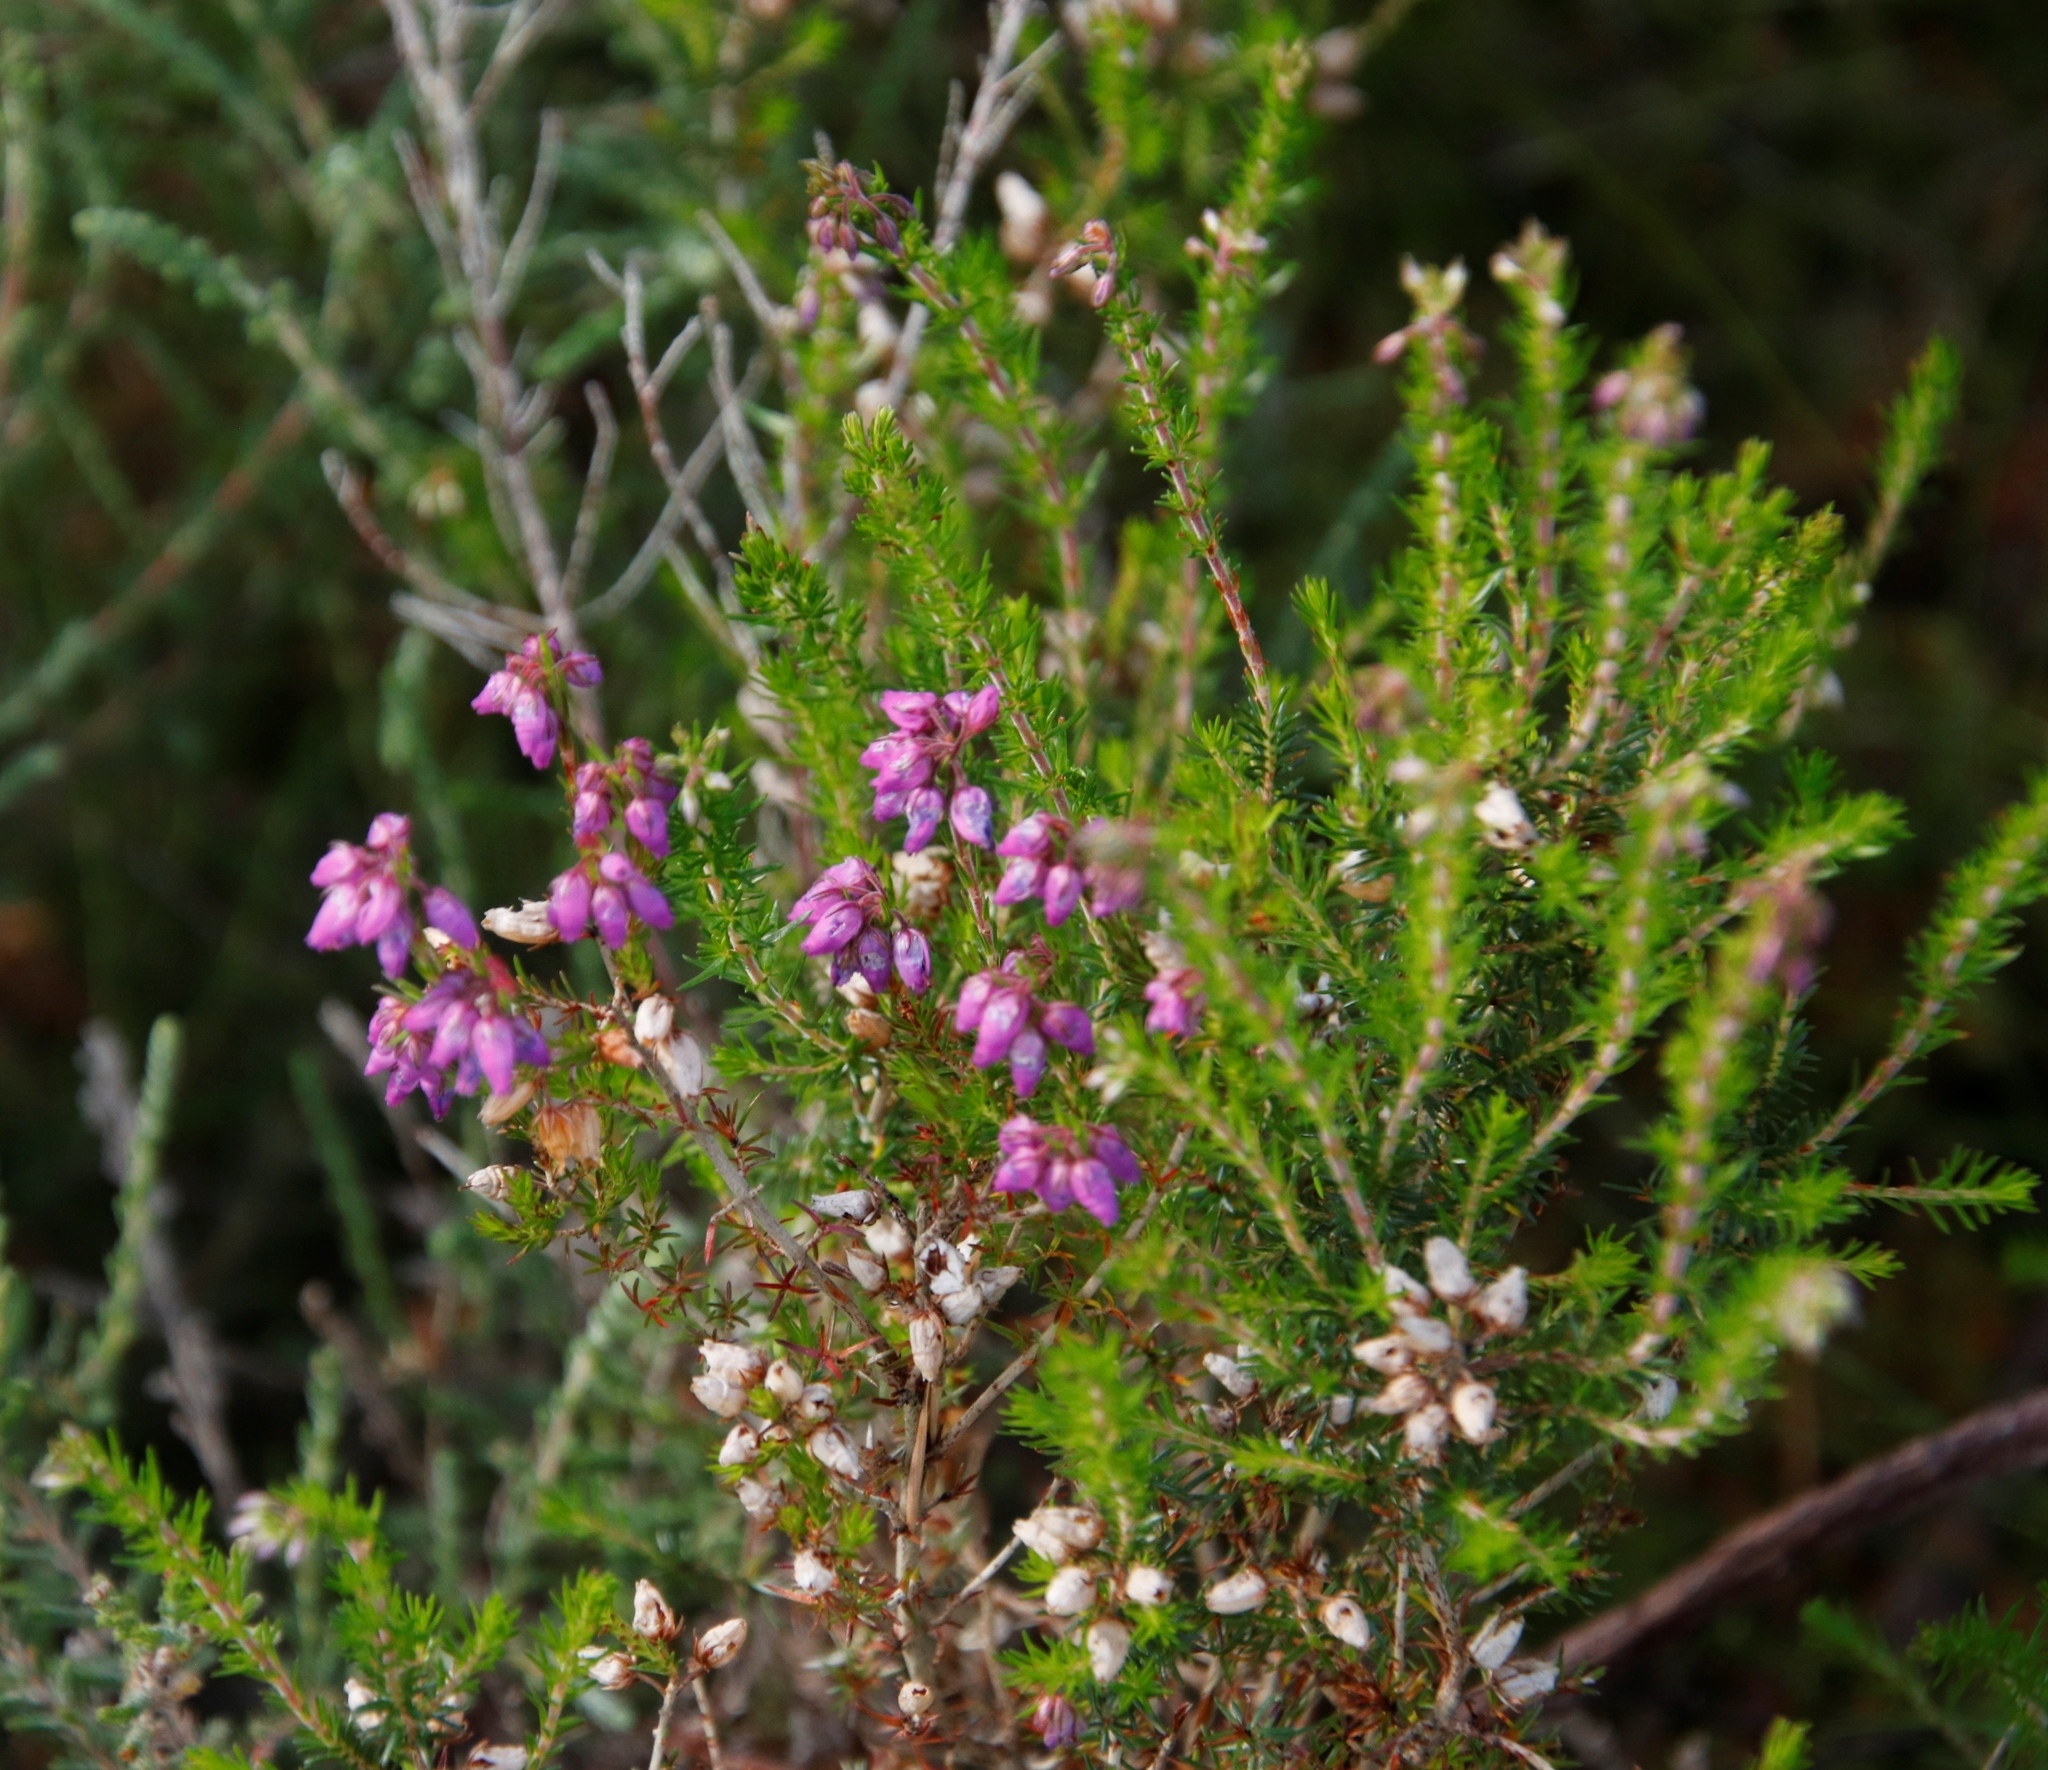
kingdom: Plantae
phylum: Tracheophyta
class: Magnoliopsida
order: Ericales
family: Ericaceae
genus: Erica
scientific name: Erica cinerea
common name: Bell heather
